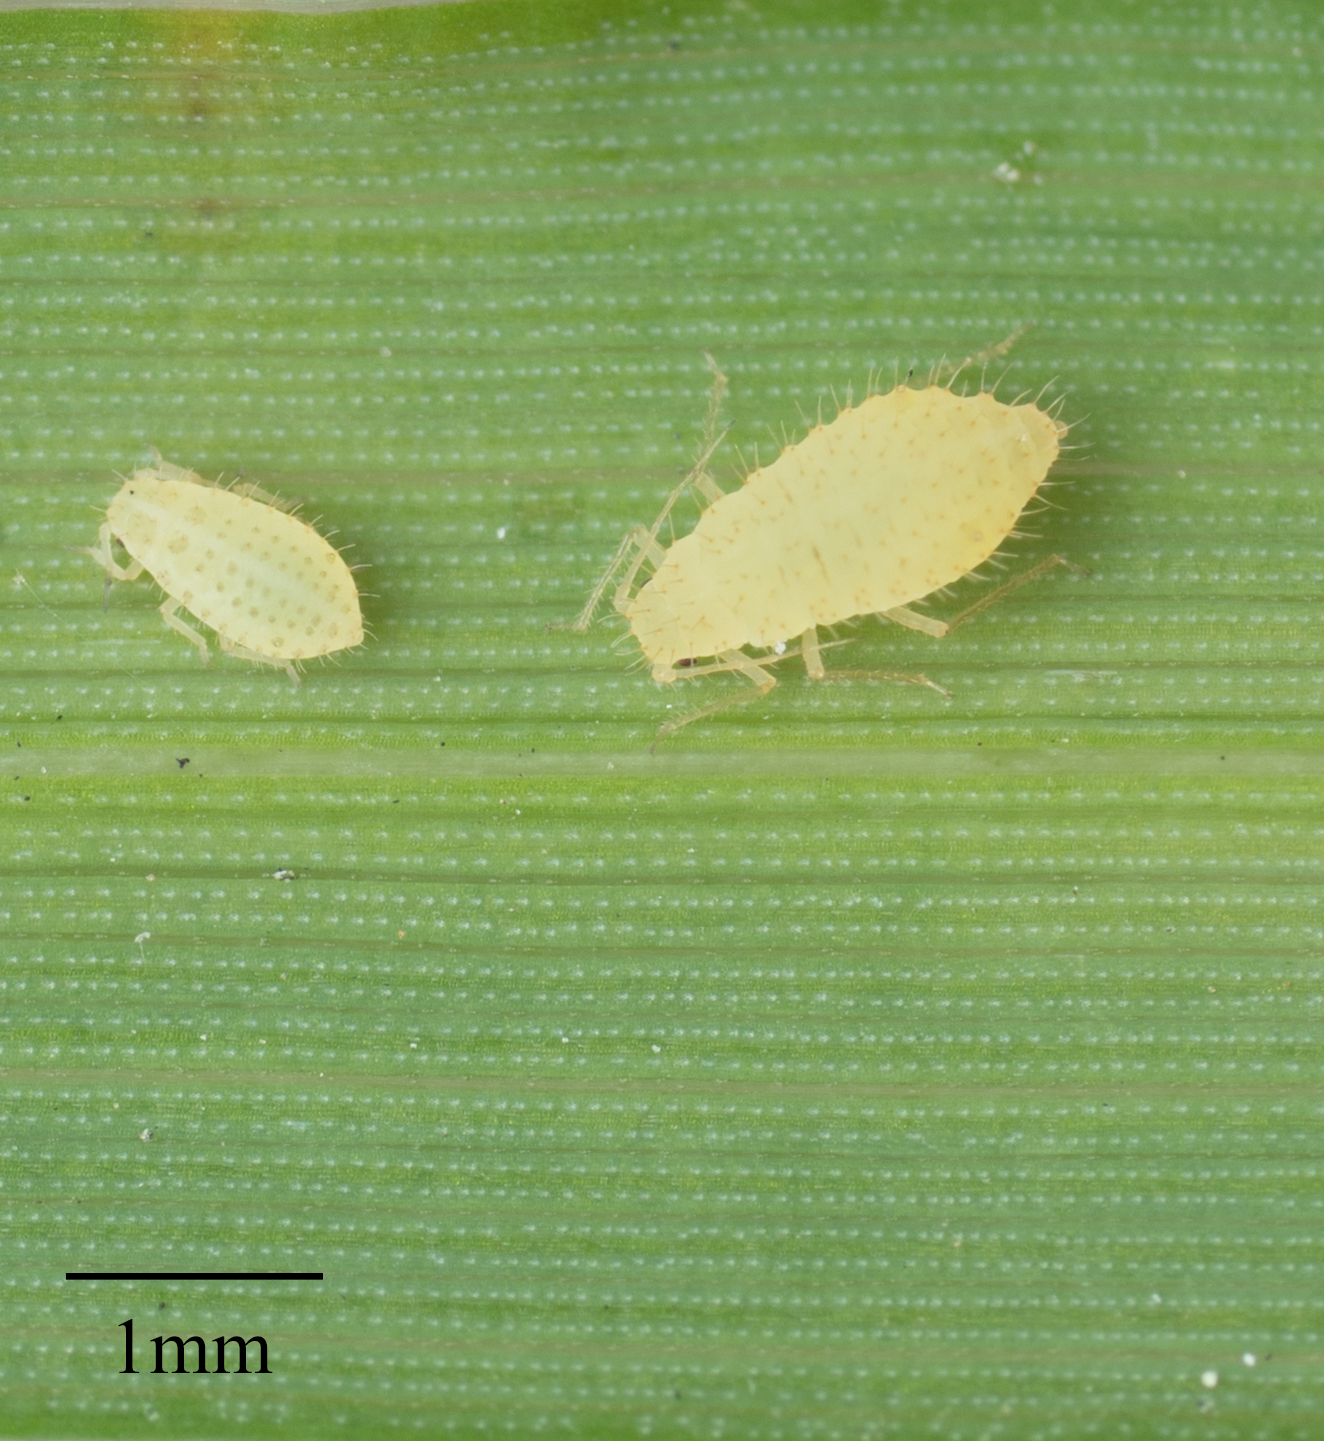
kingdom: Animalia
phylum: Arthropoda
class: Insecta
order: Hemiptera
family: Aphididae
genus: Sipha
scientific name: Sipha flava
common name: Yellow sugarcane aphid
